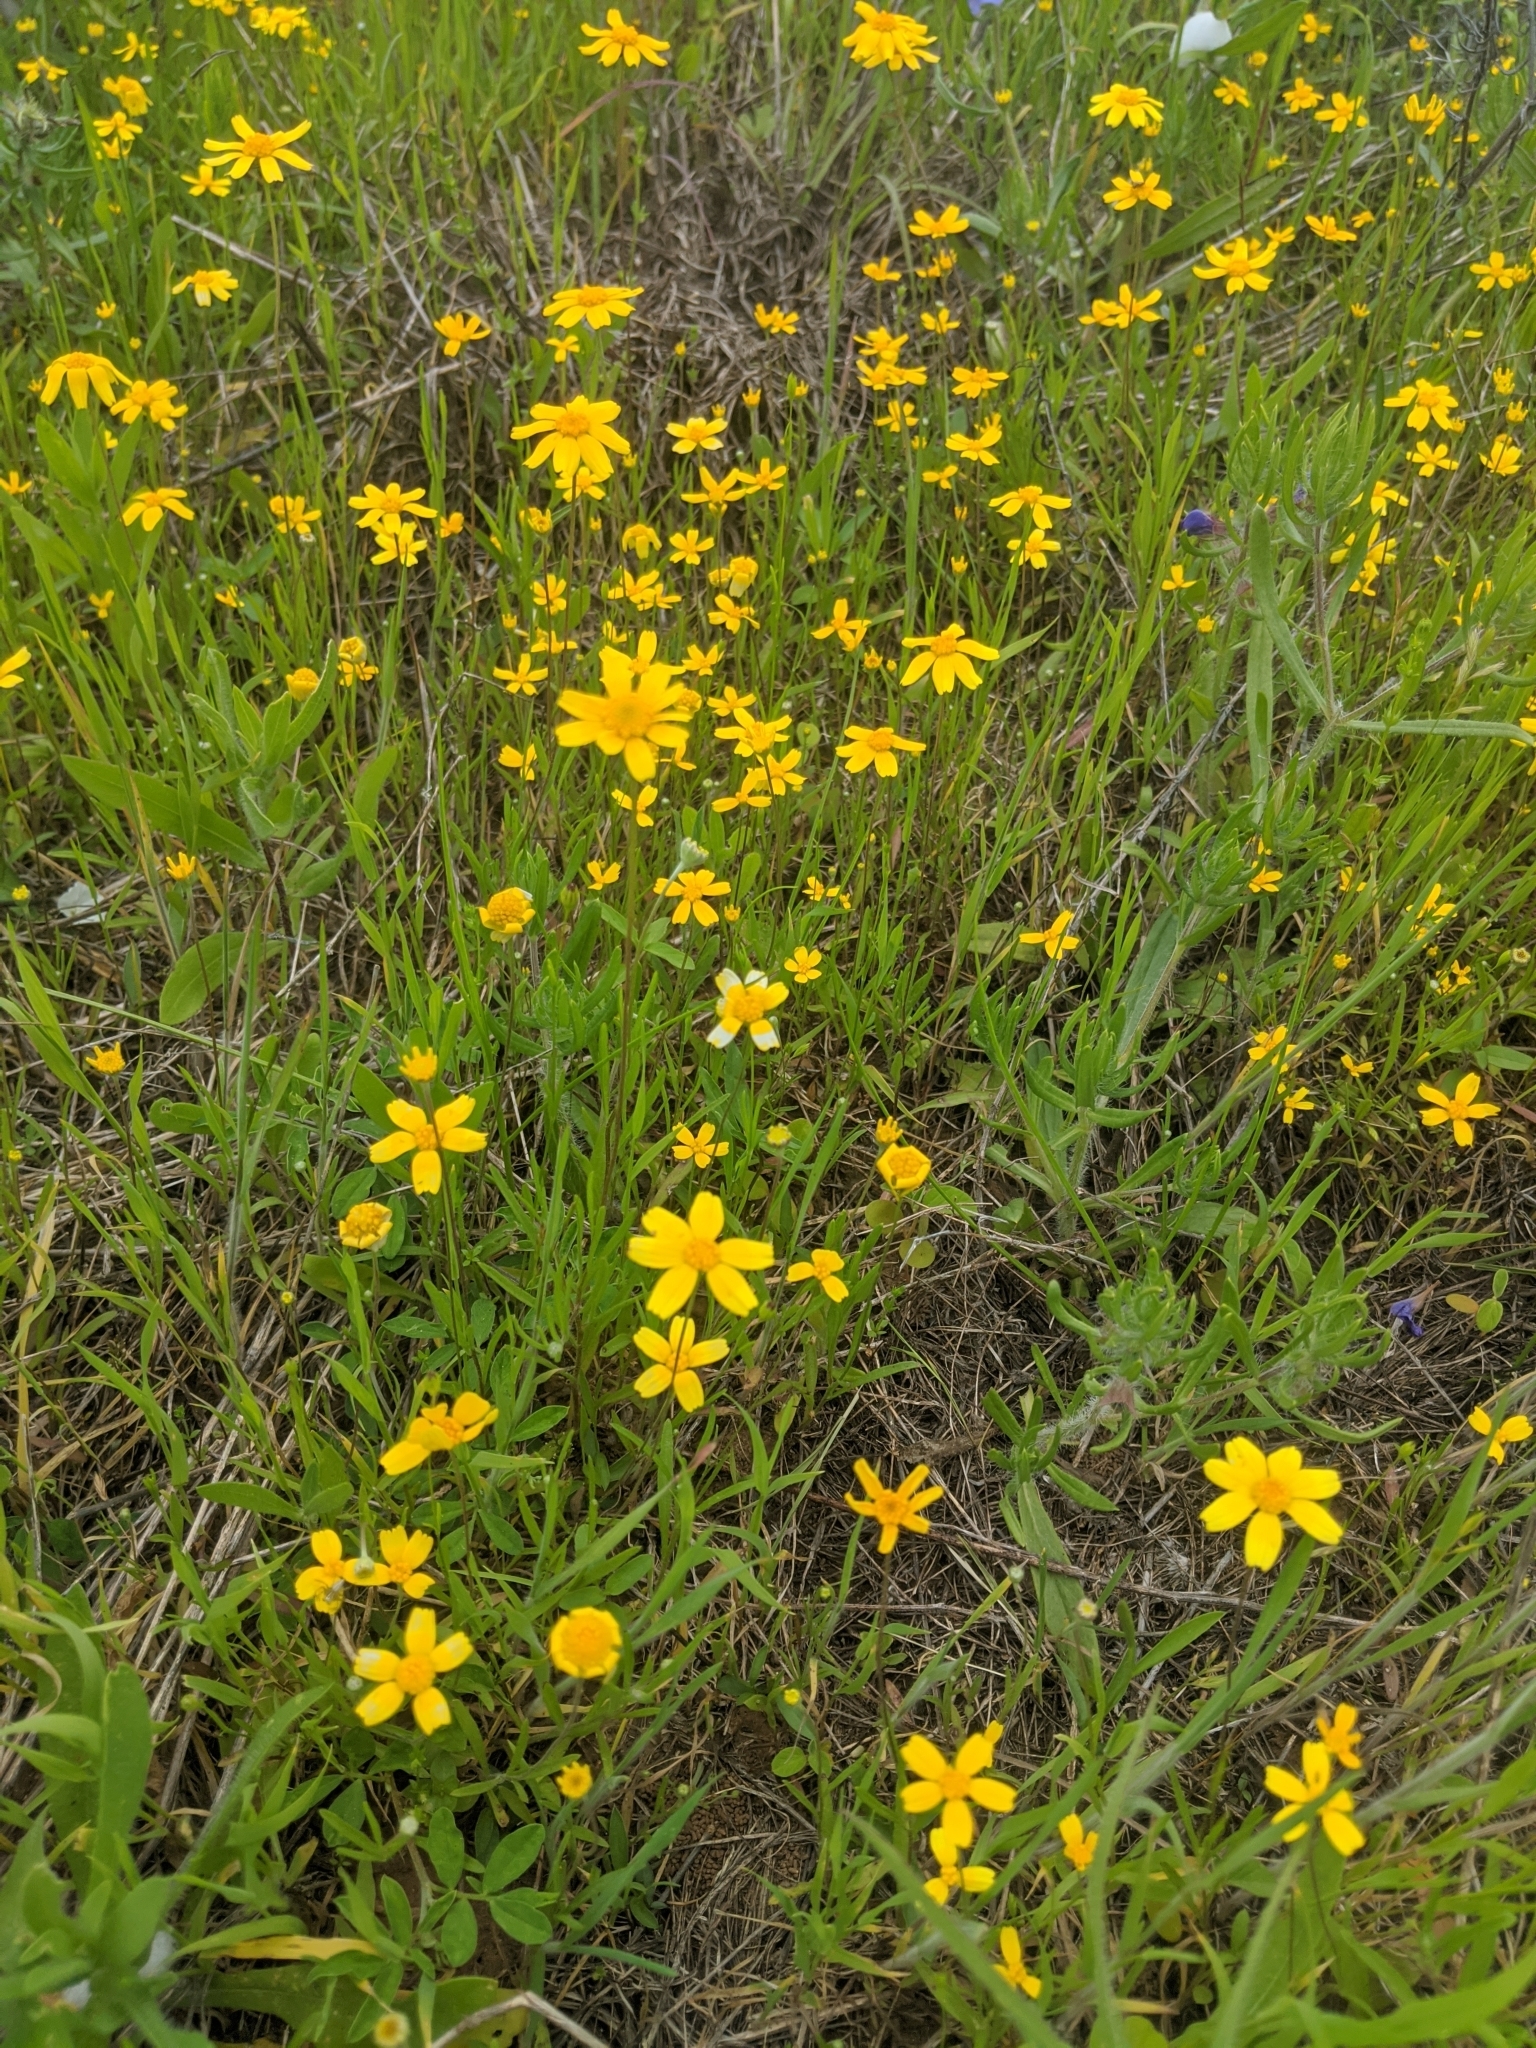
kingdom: Plantae
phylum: Tracheophyta
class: Magnoliopsida
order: Asterales
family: Asteraceae
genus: Tetraneuris
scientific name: Tetraneuris linearifolia
